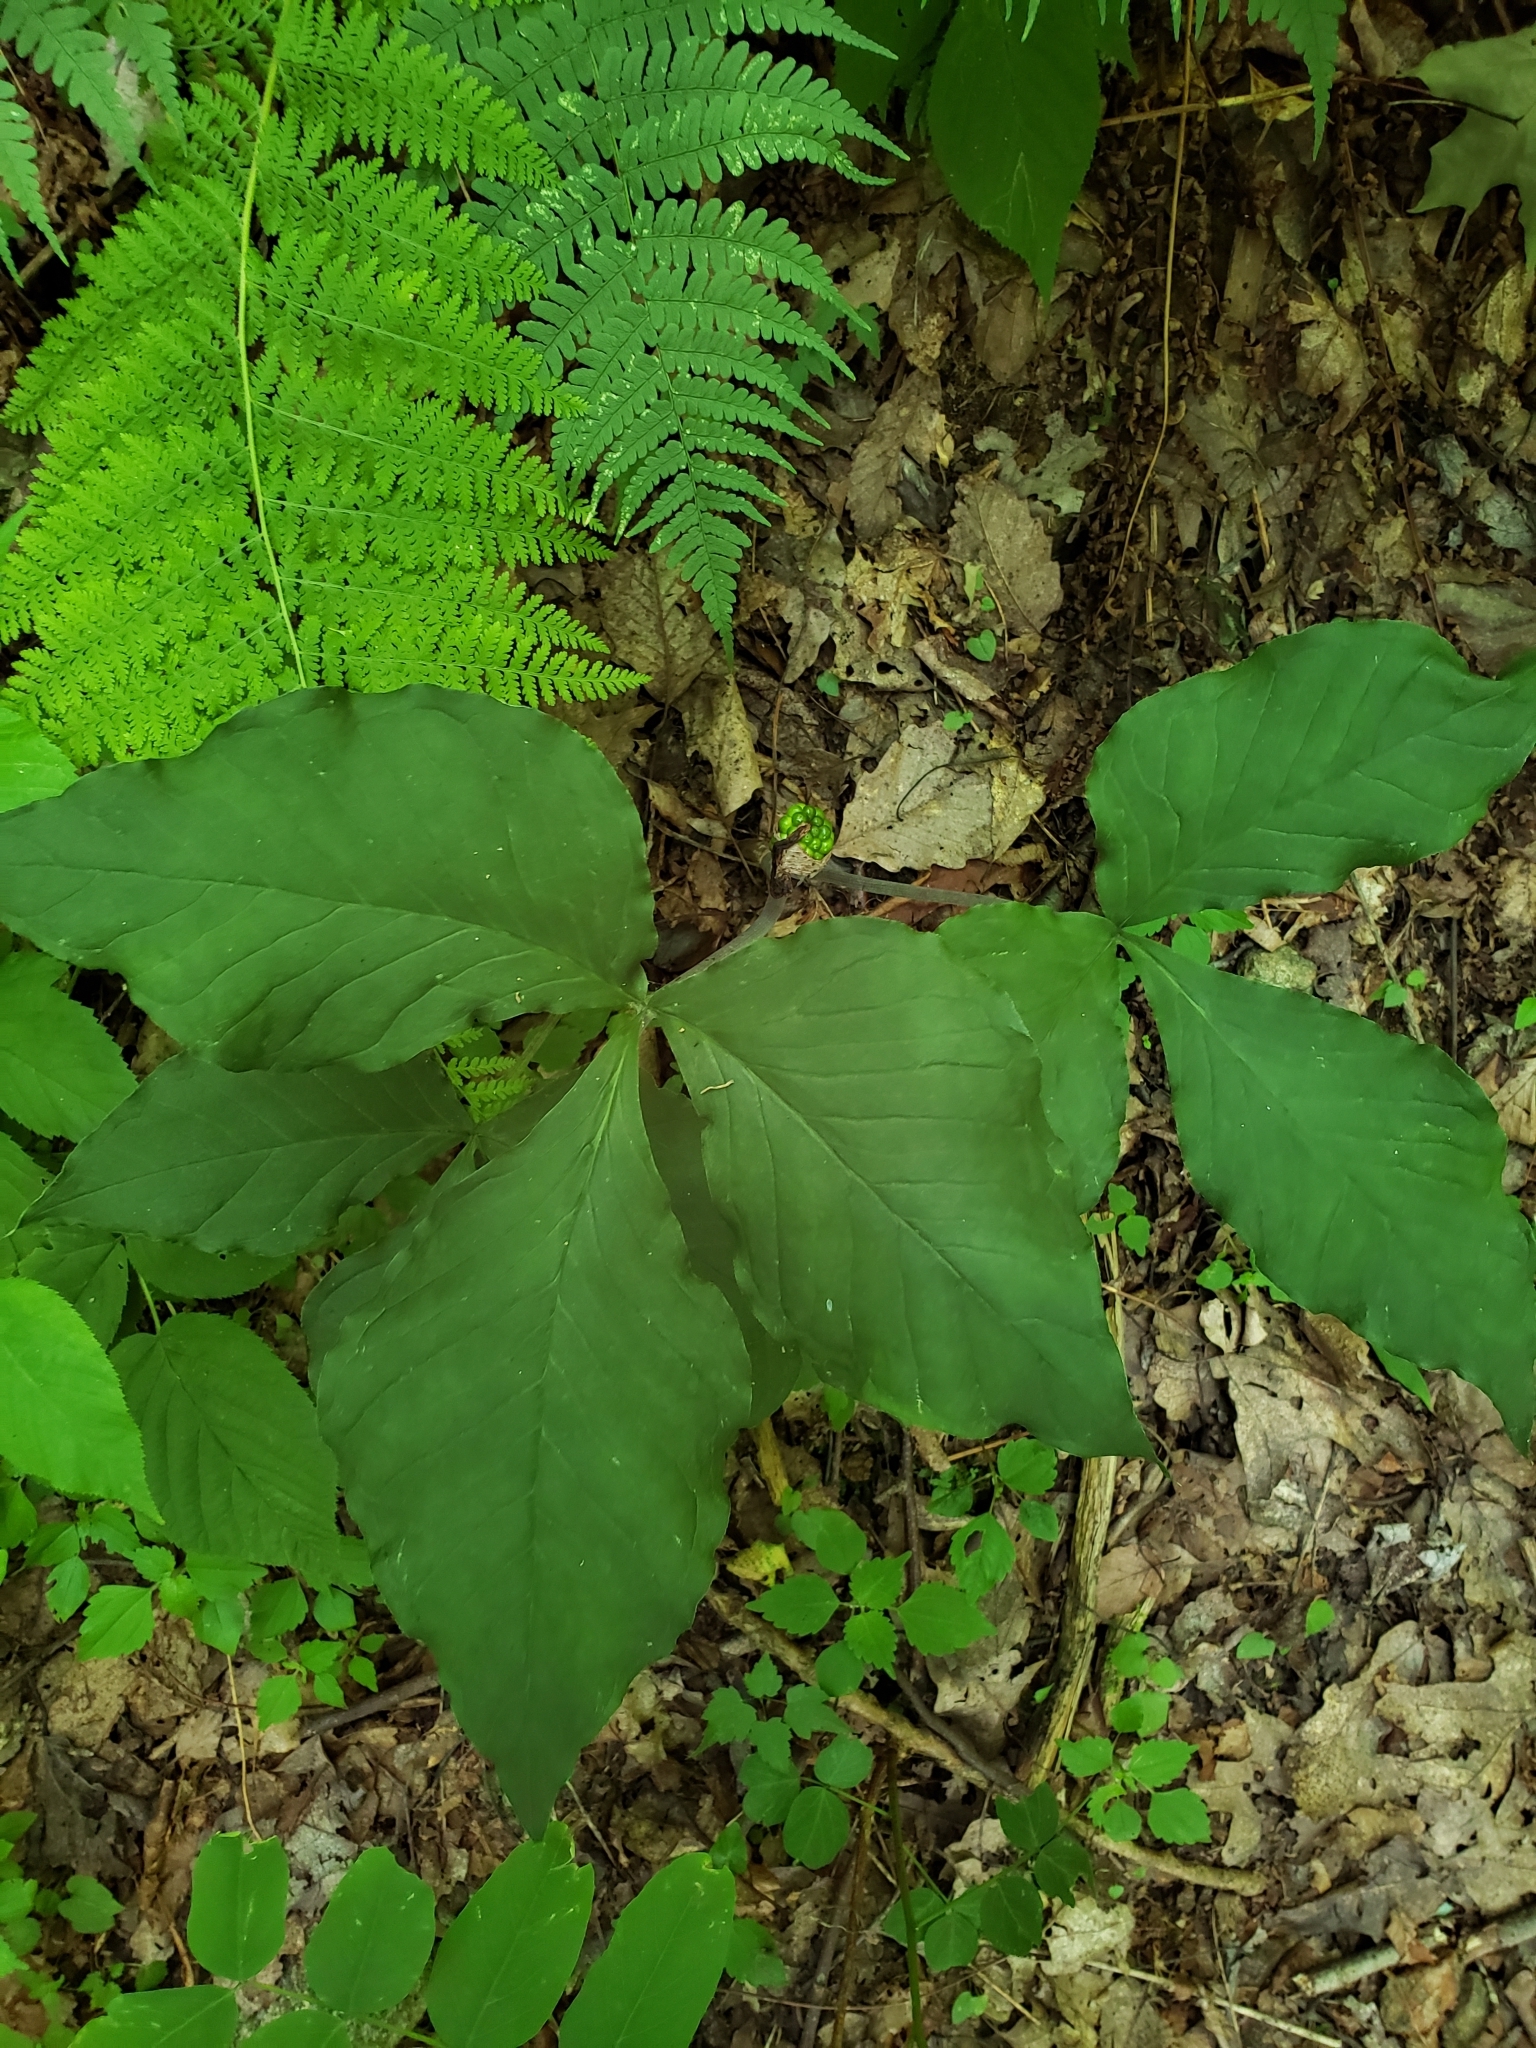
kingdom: Plantae
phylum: Tracheophyta
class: Liliopsida
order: Alismatales
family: Araceae
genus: Arisaema
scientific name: Arisaema triphyllum
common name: Jack-in-the-pulpit
